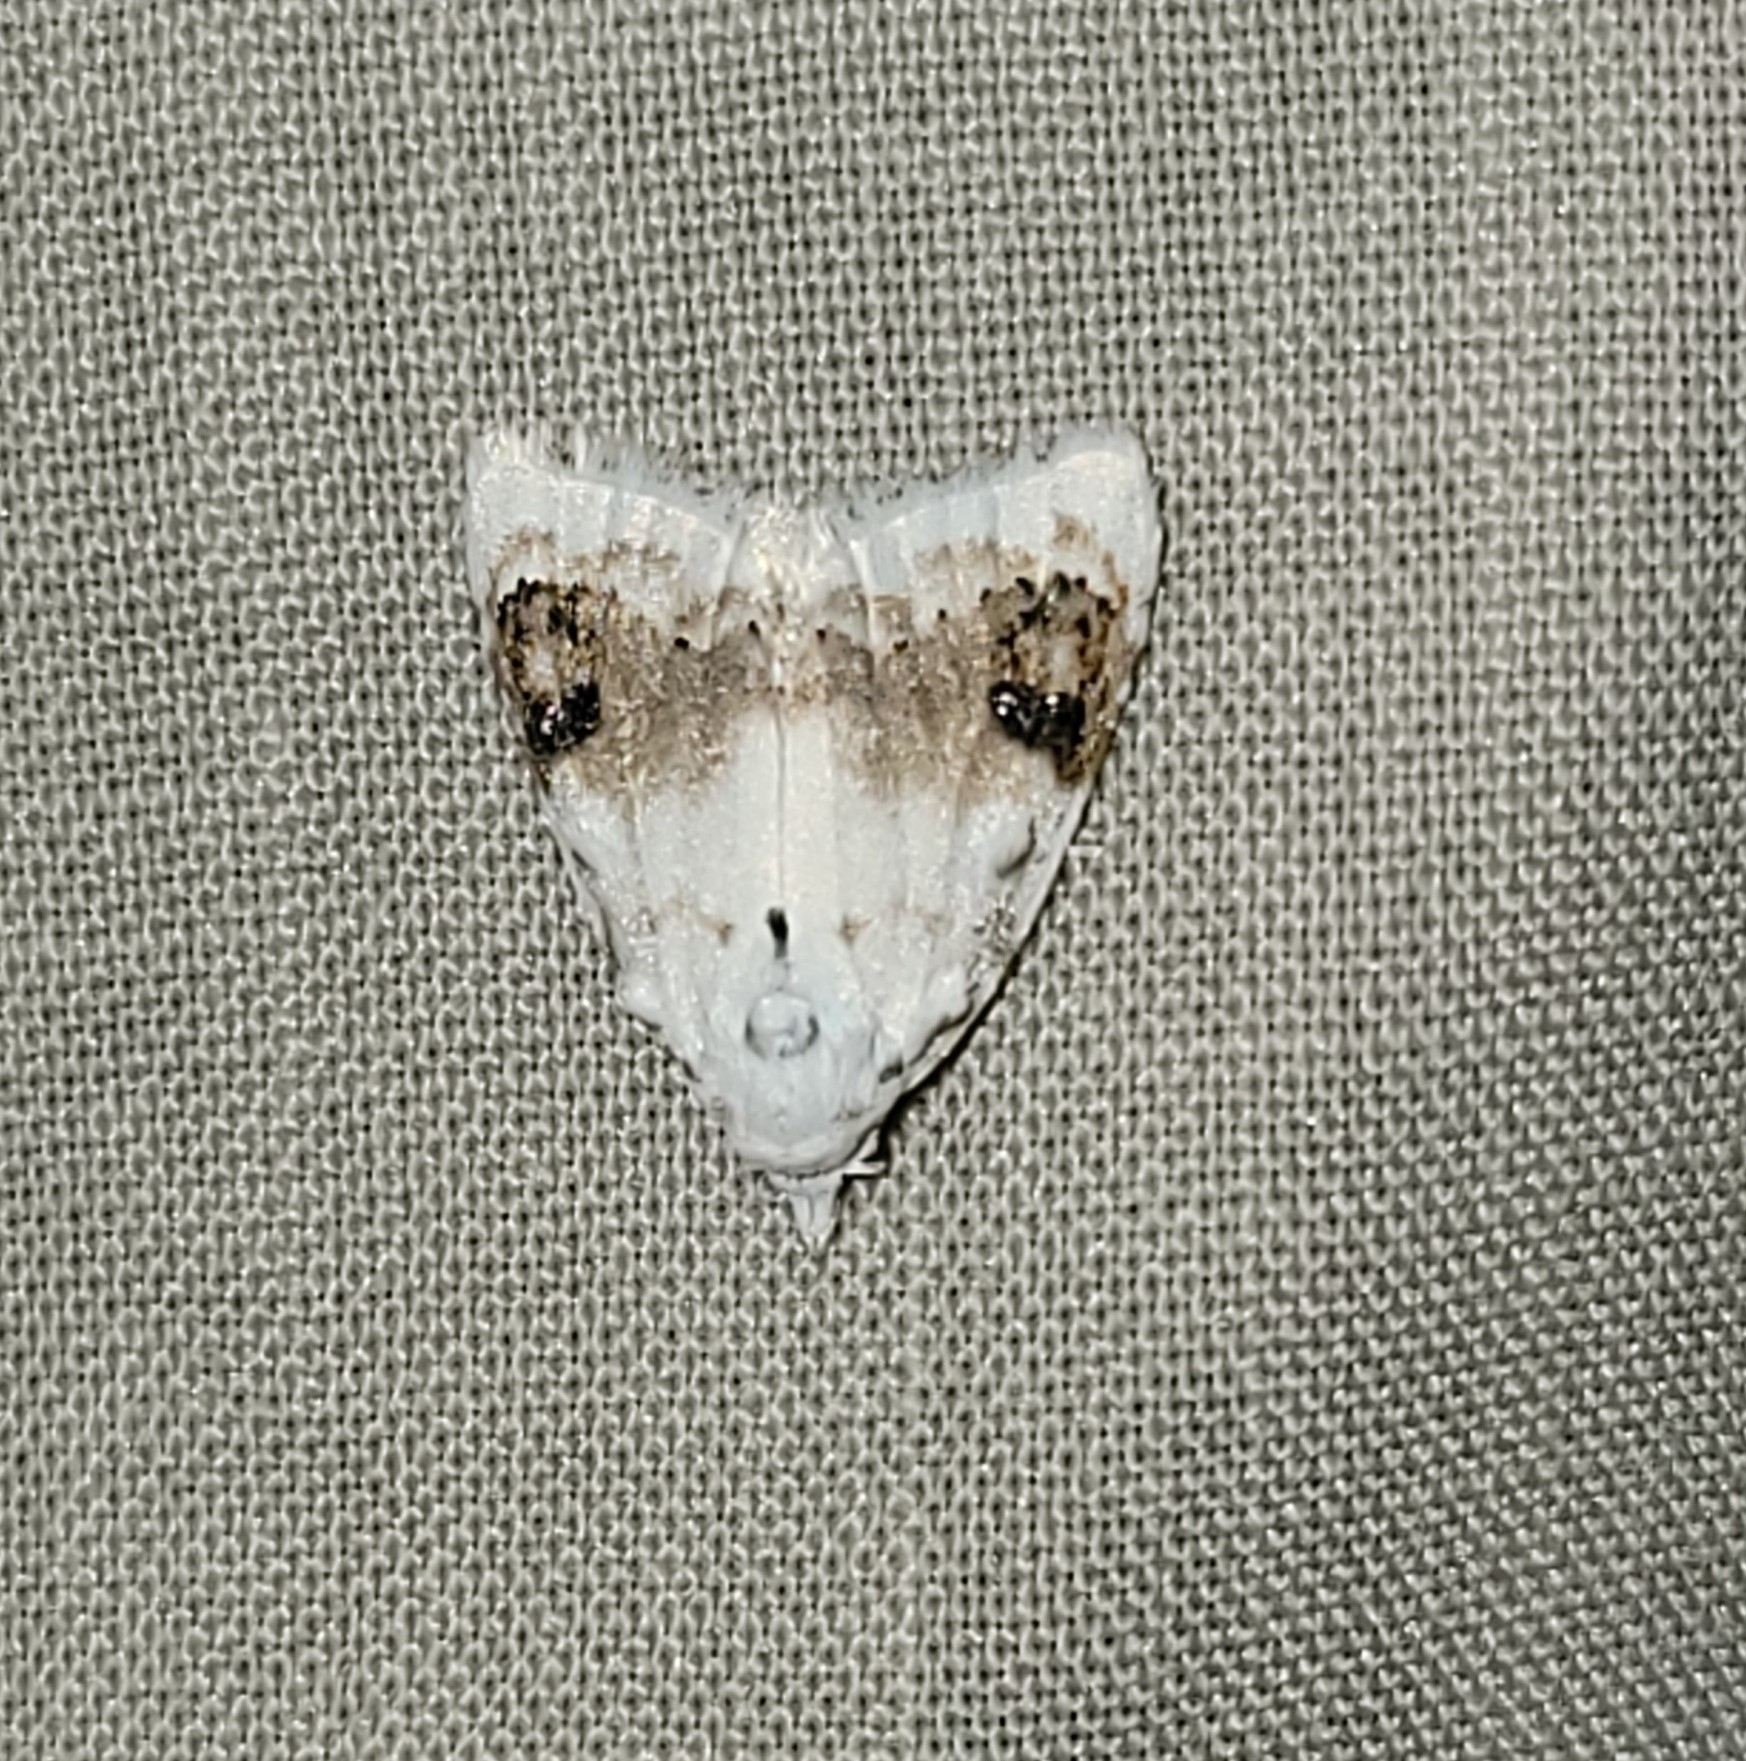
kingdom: Animalia
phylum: Arthropoda
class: Insecta
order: Lepidoptera
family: Nolidae
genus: Nola
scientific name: Nola cilicoides
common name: Blurry-patched nola moth
